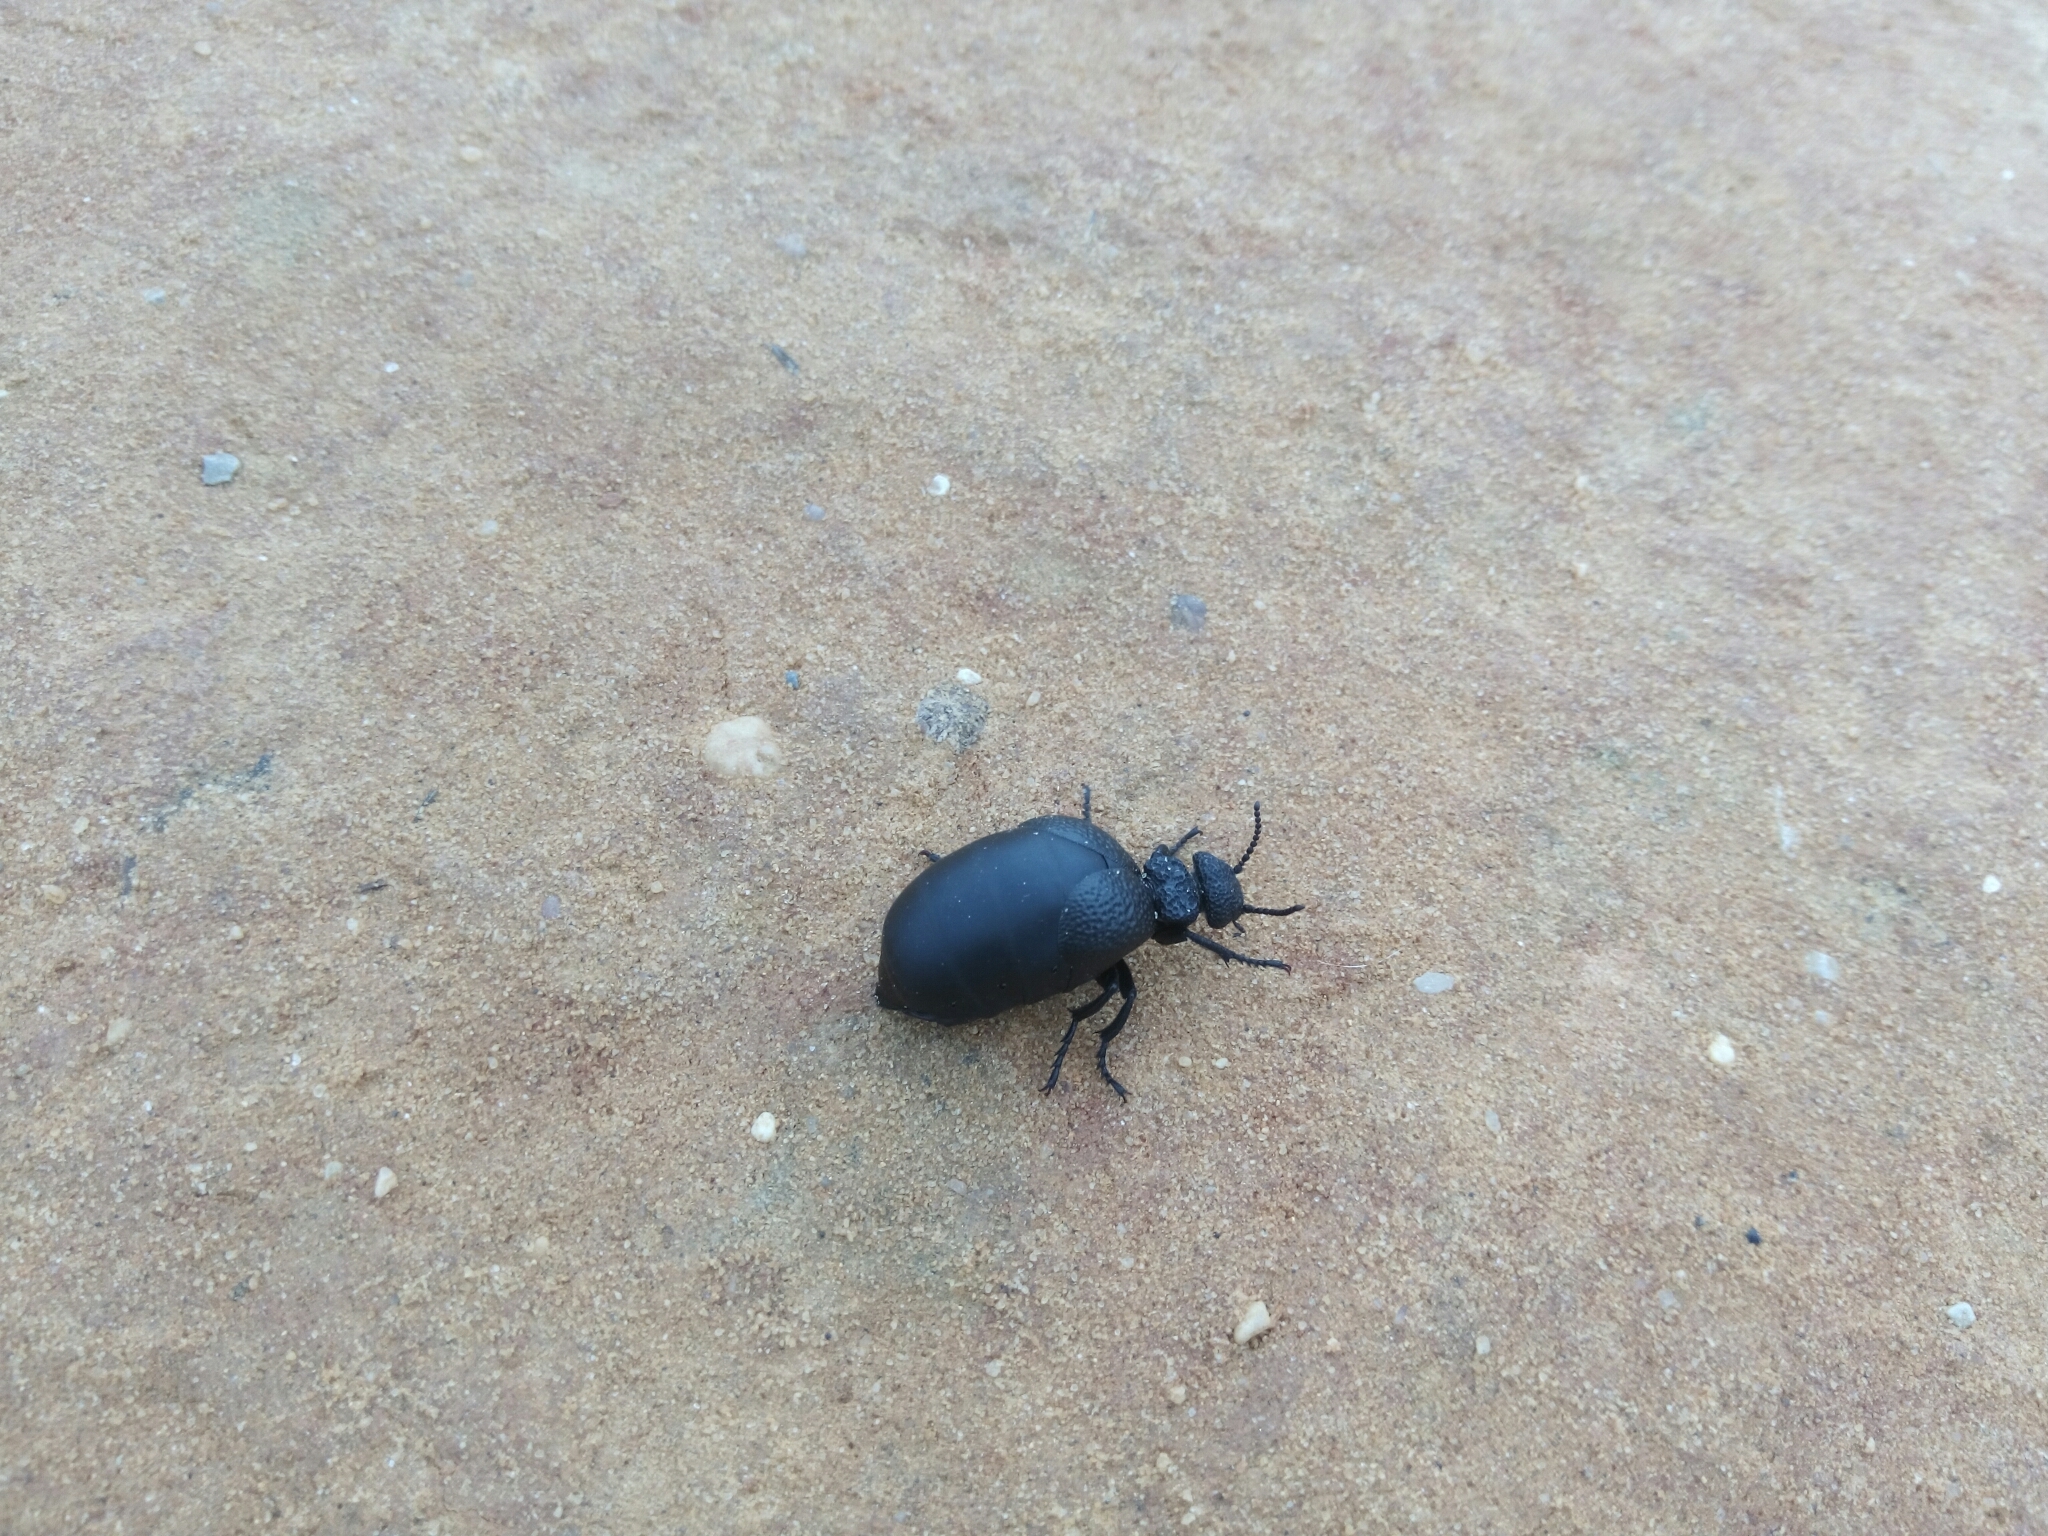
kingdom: Animalia
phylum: Arthropoda
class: Insecta
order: Coleoptera
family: Meloidae
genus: Meloe
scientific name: Meloe tuccius
